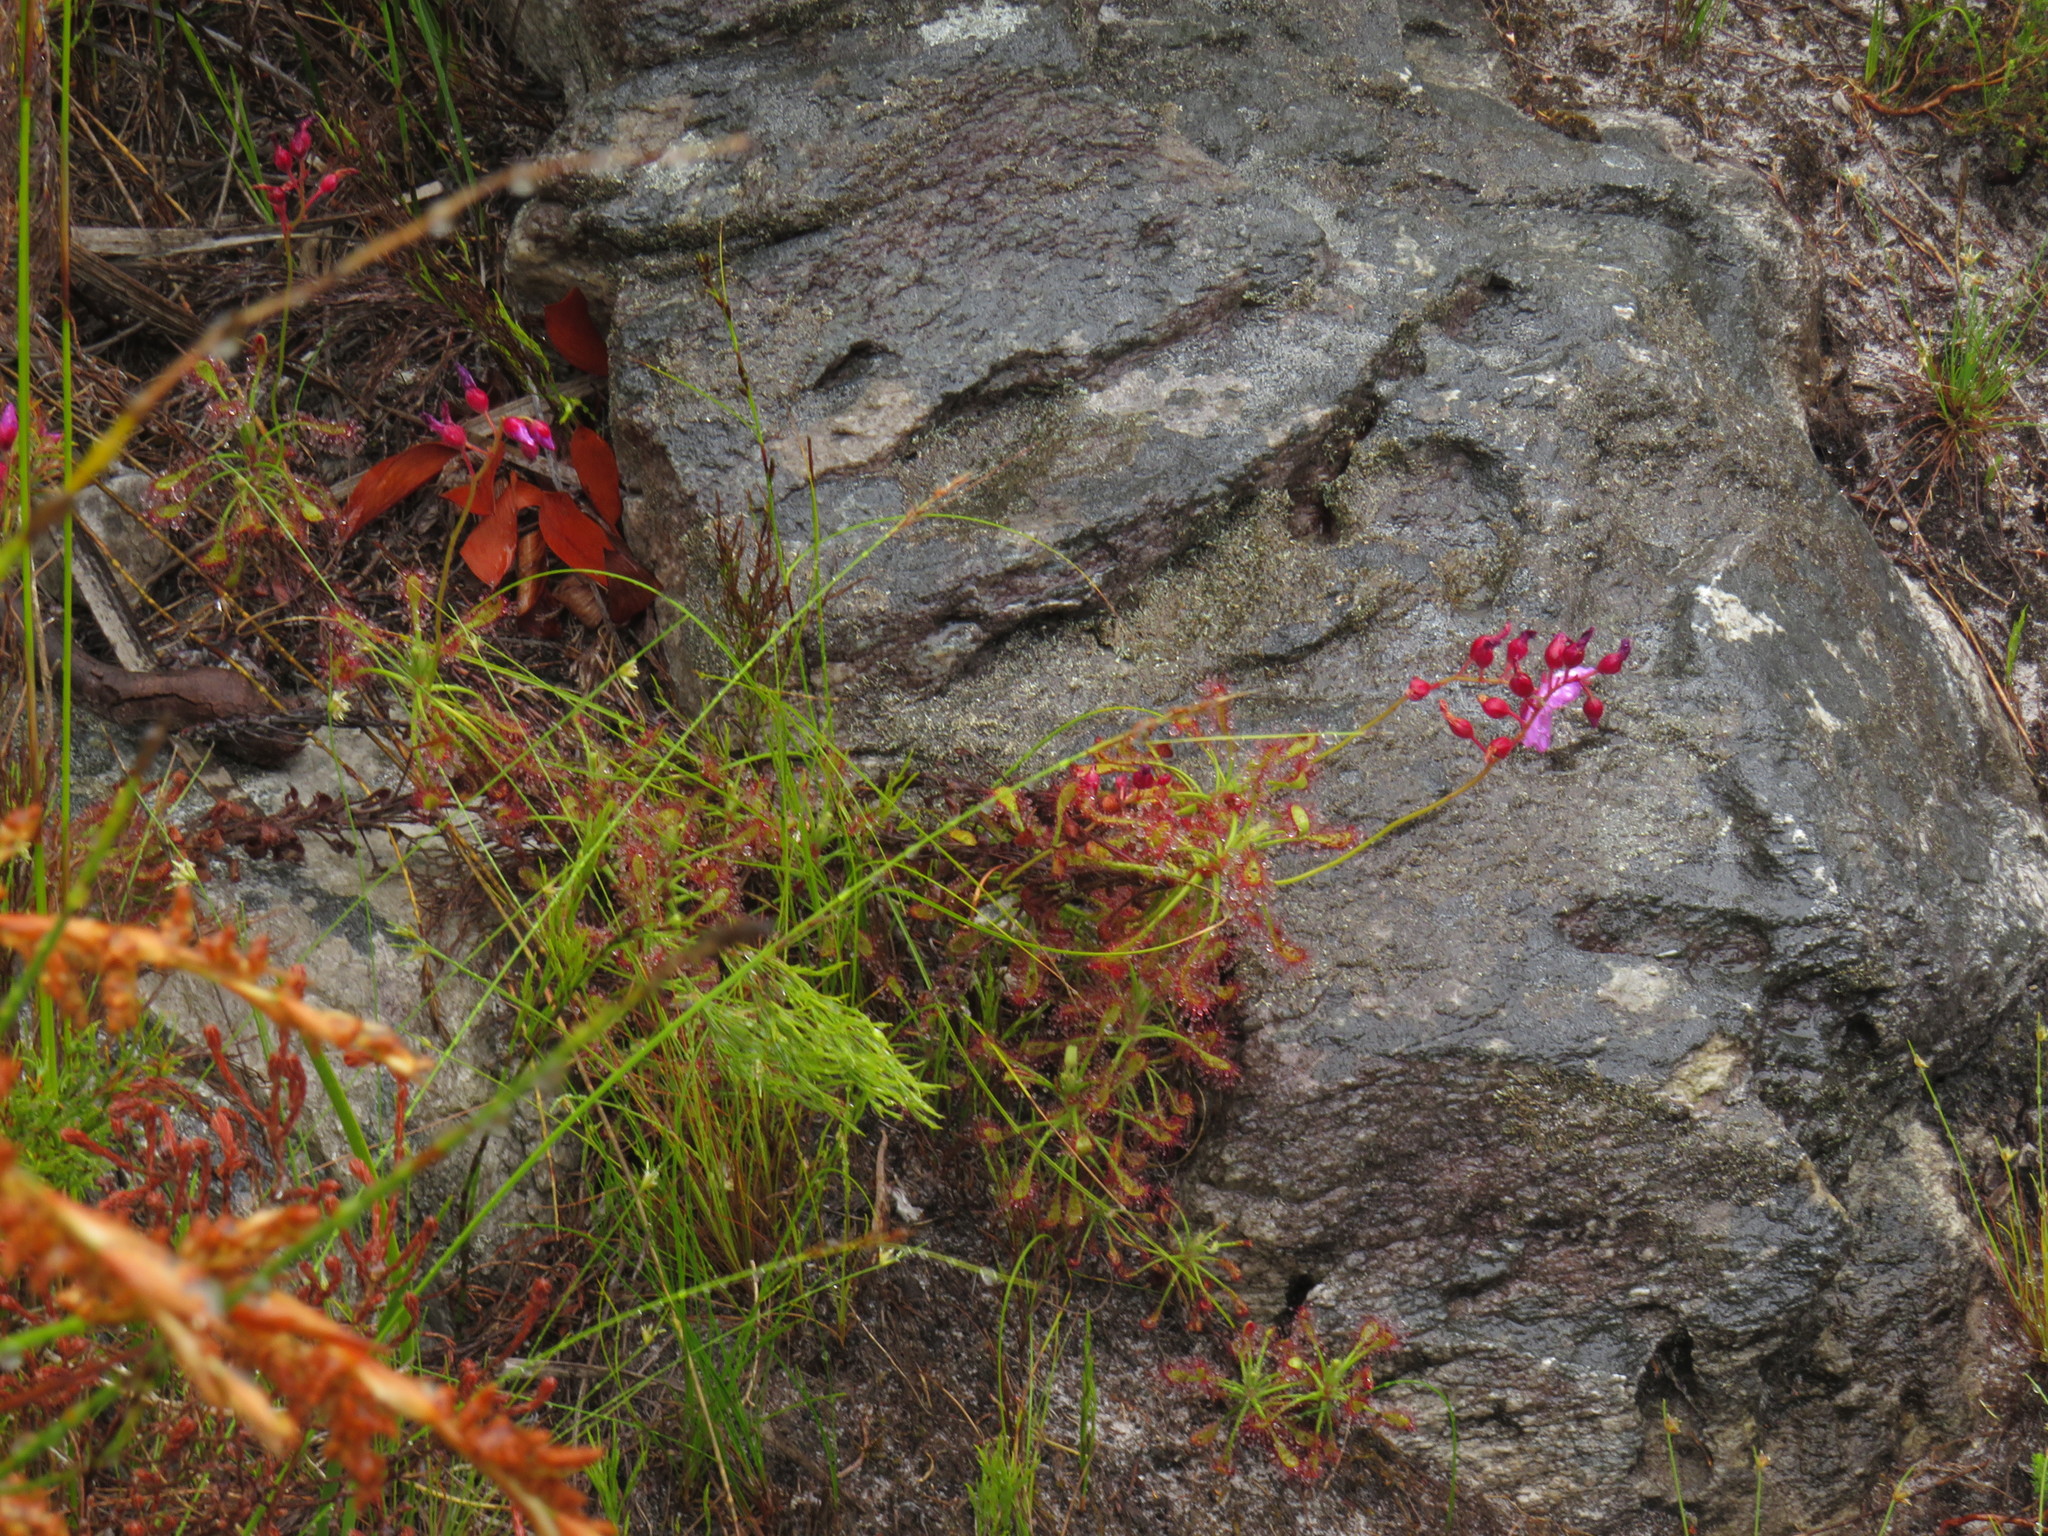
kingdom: Plantae
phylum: Tracheophyta
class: Magnoliopsida
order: Caryophyllales
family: Droseraceae
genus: Drosera
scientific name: Drosera glabripes
